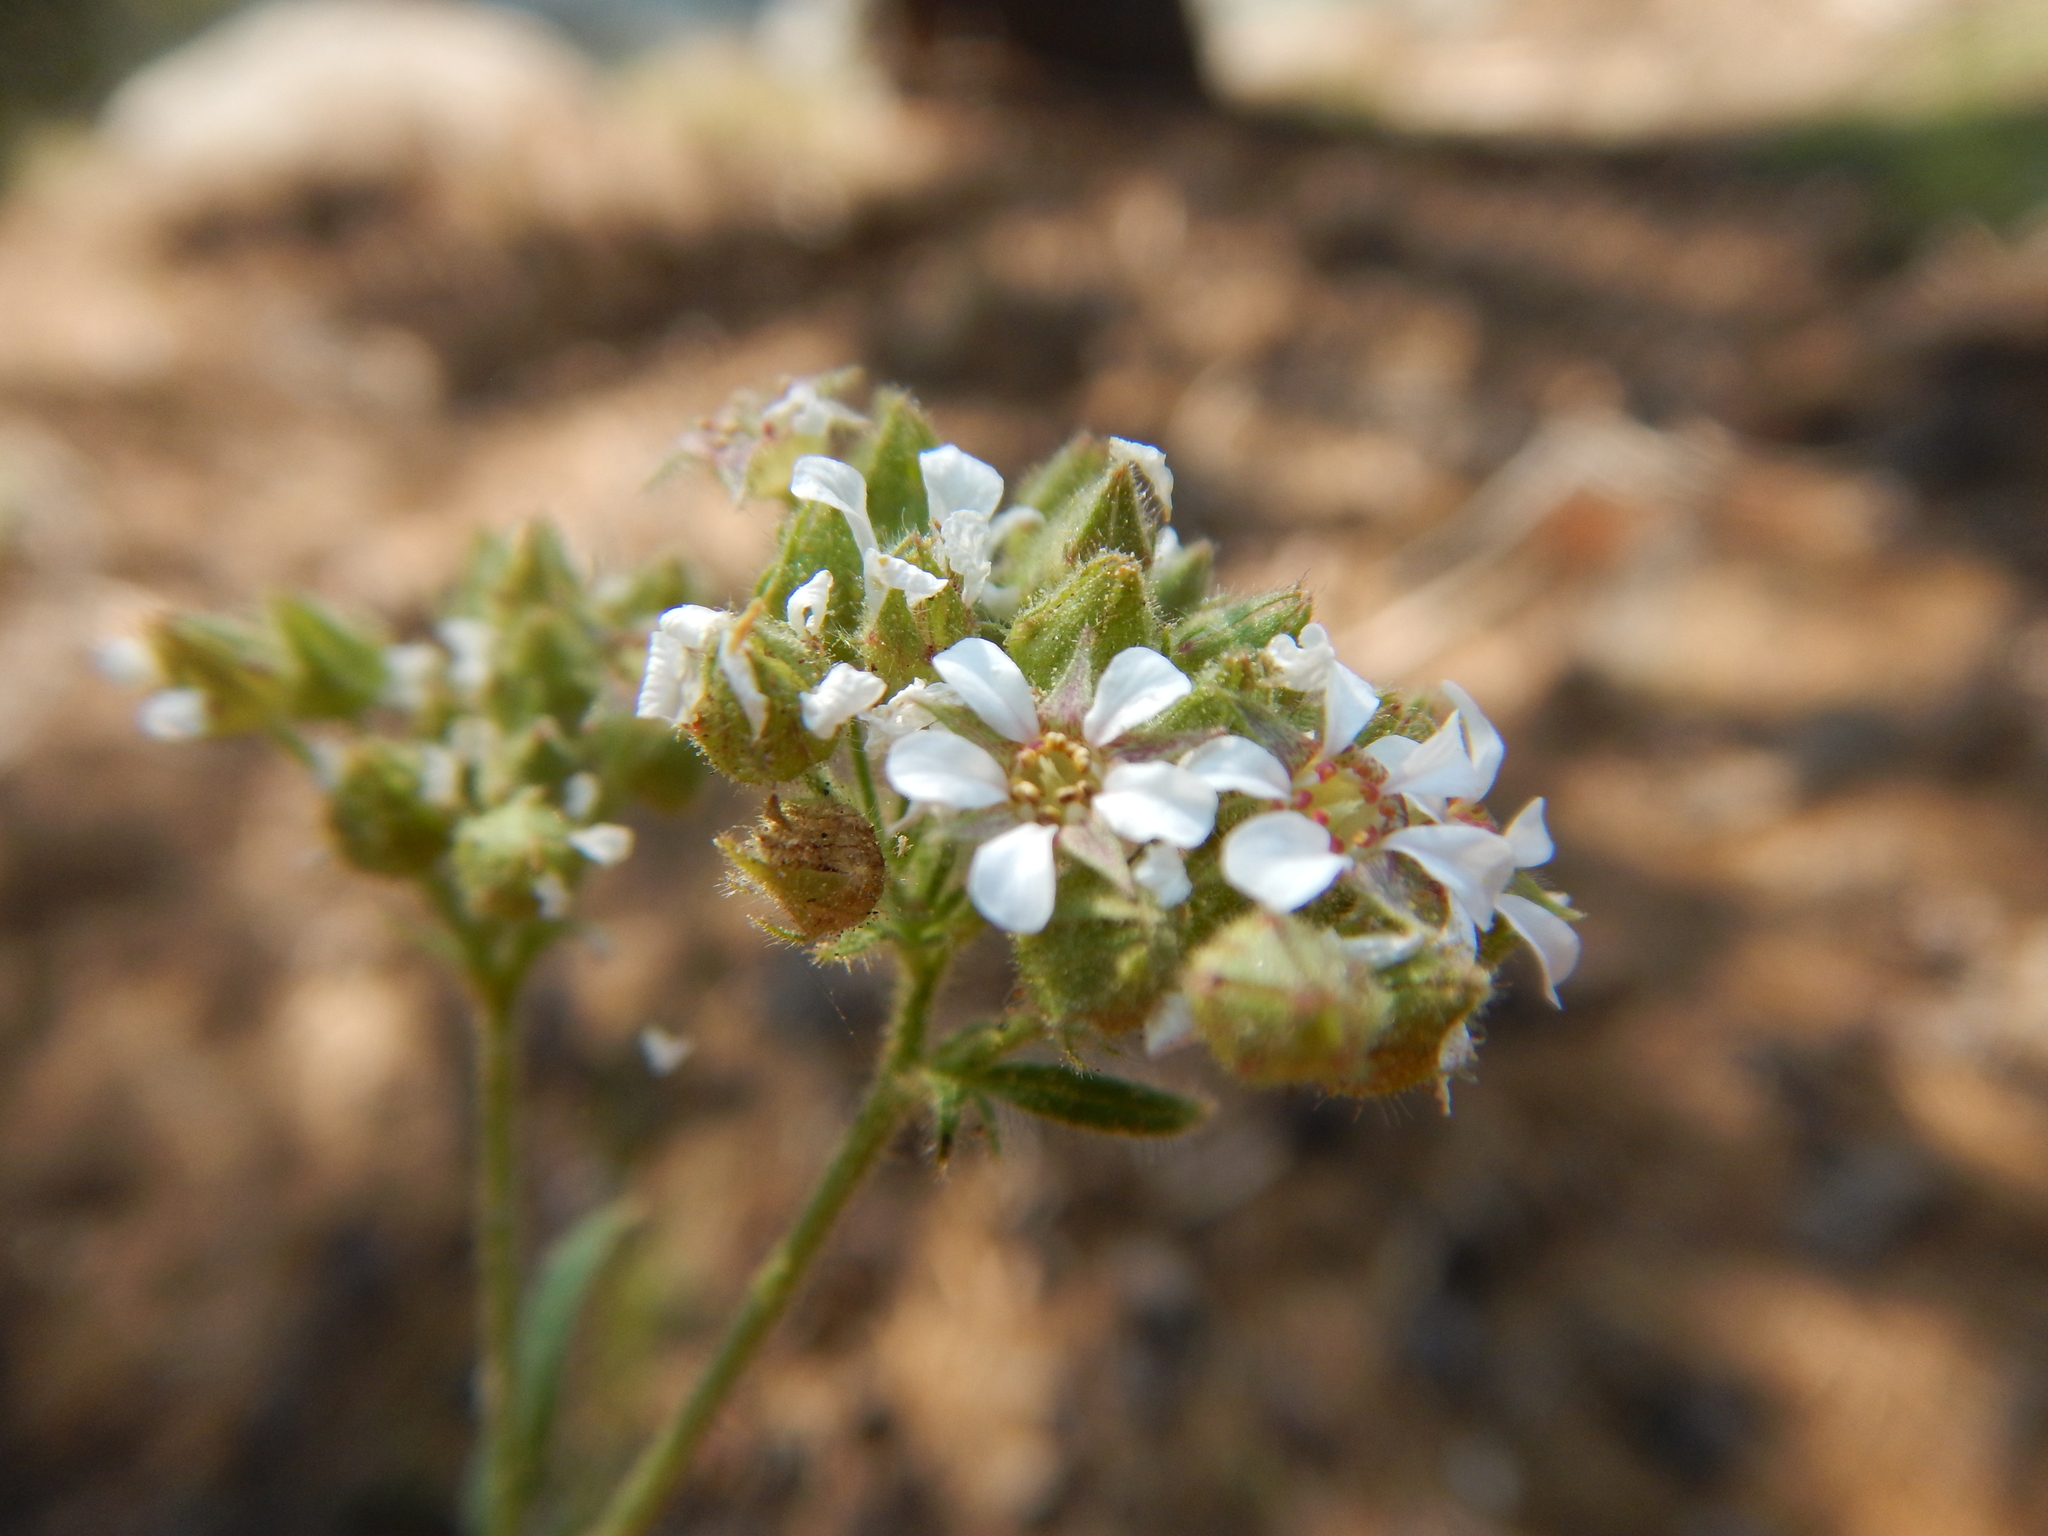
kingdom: Plantae
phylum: Tracheophyta
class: Magnoliopsida
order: Rosales
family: Rosaceae
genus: Potentilla
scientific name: Potentilla douglasii
